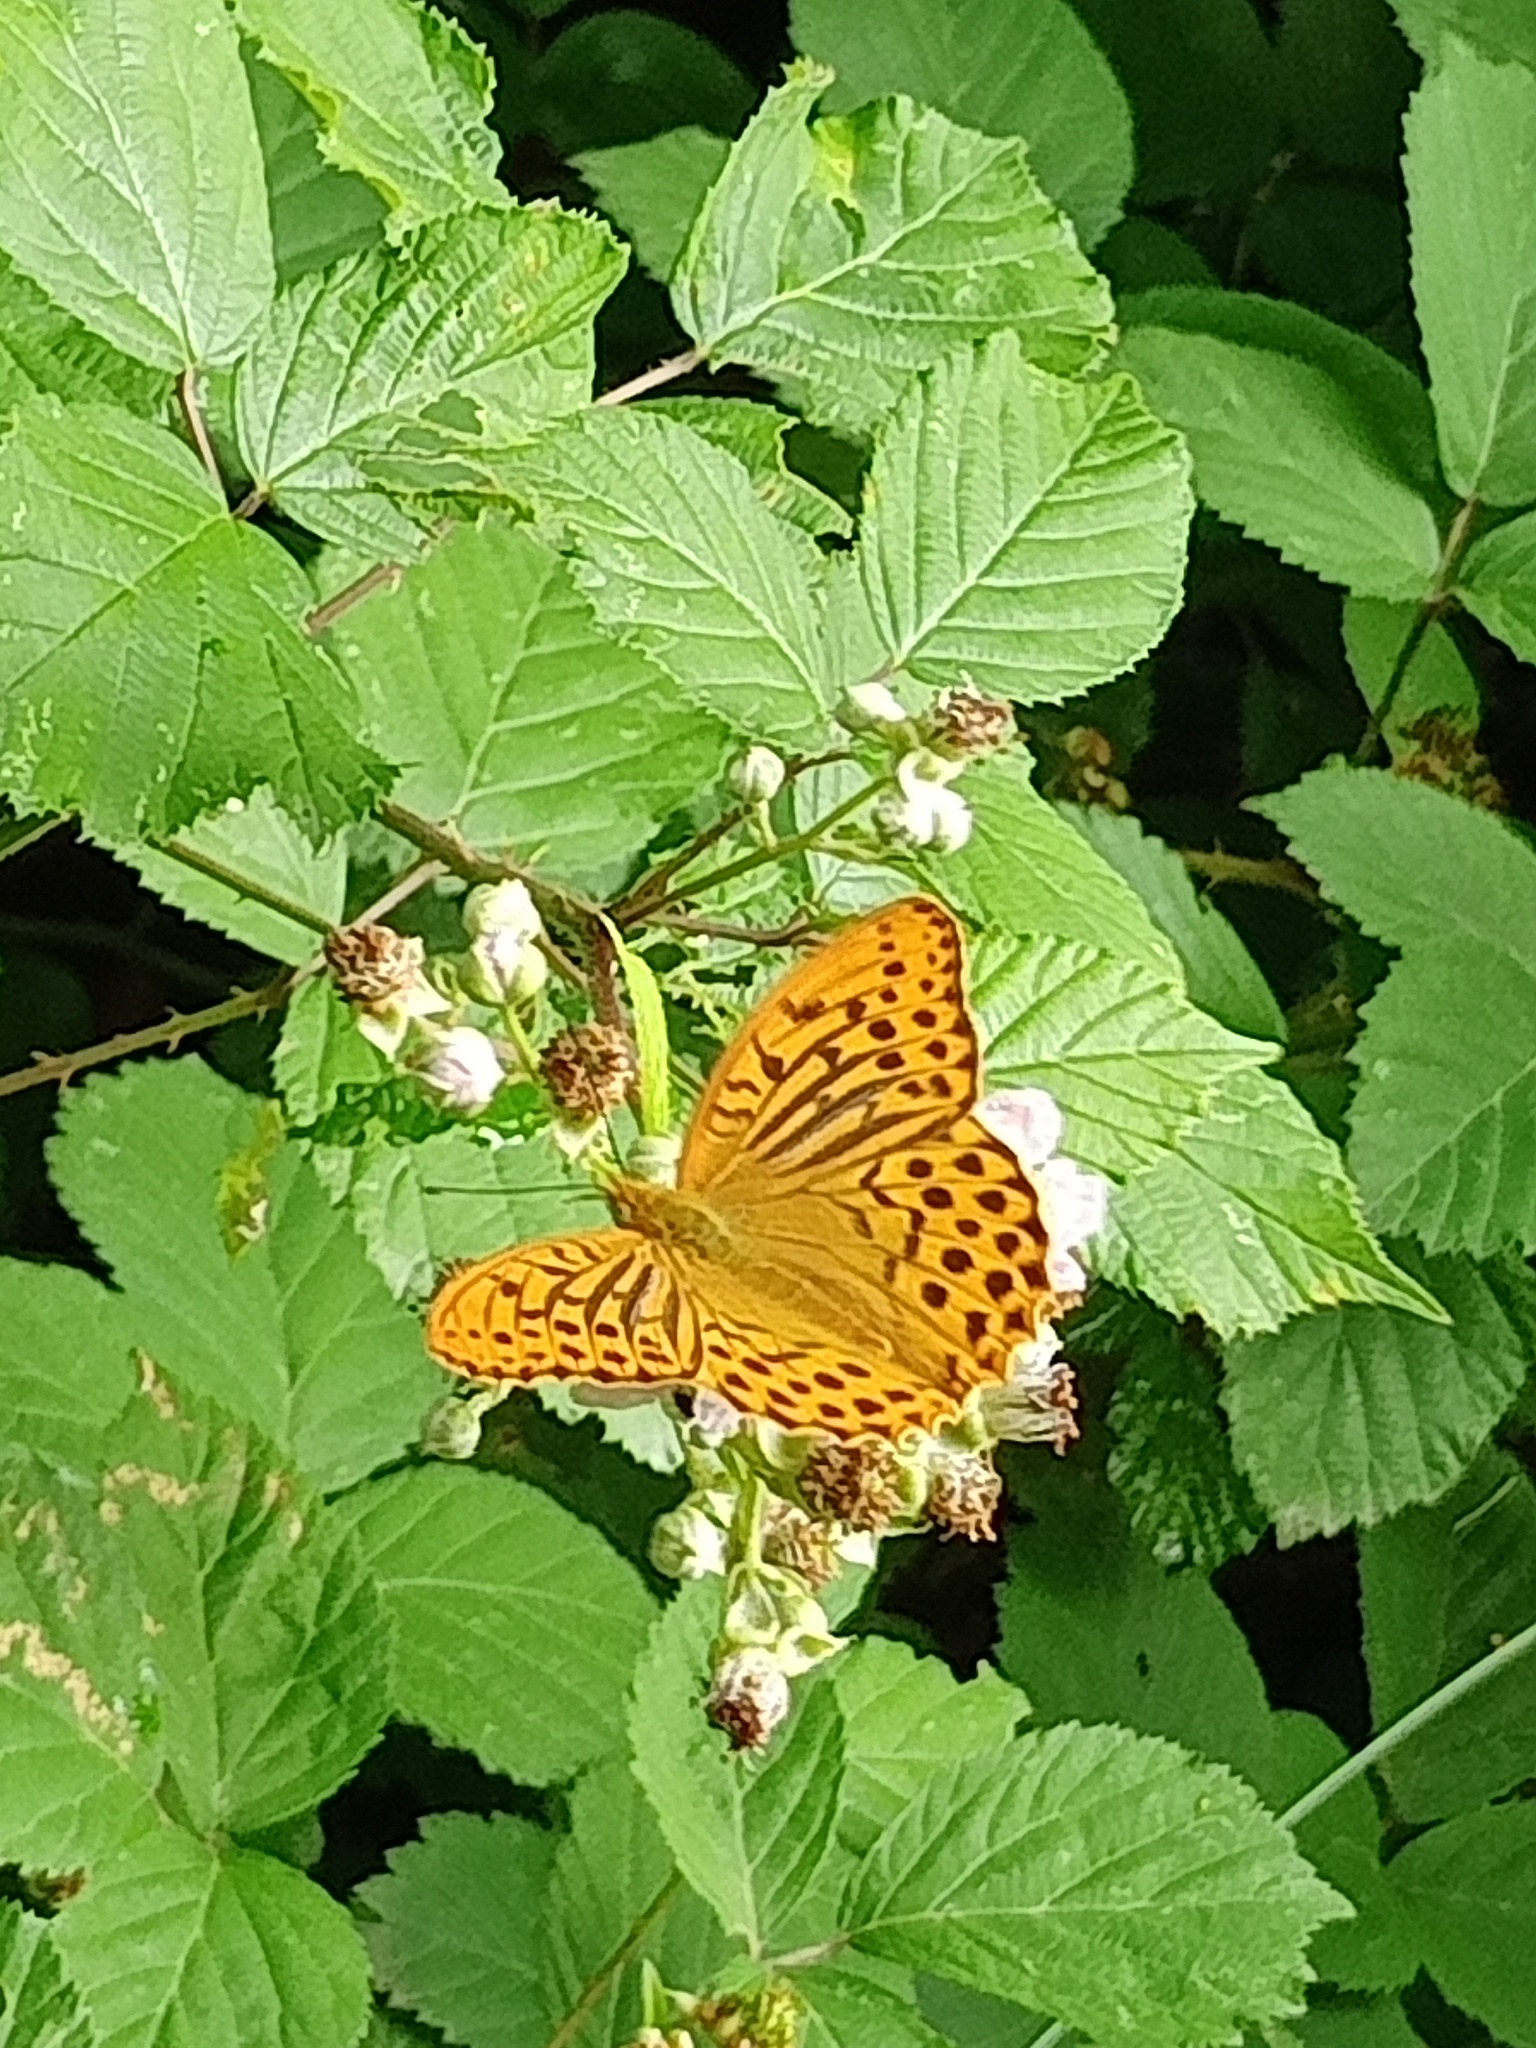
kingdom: Animalia
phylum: Arthropoda
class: Insecta
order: Lepidoptera
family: Nymphalidae
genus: Argynnis
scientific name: Argynnis paphia
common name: Silver-washed fritillary
